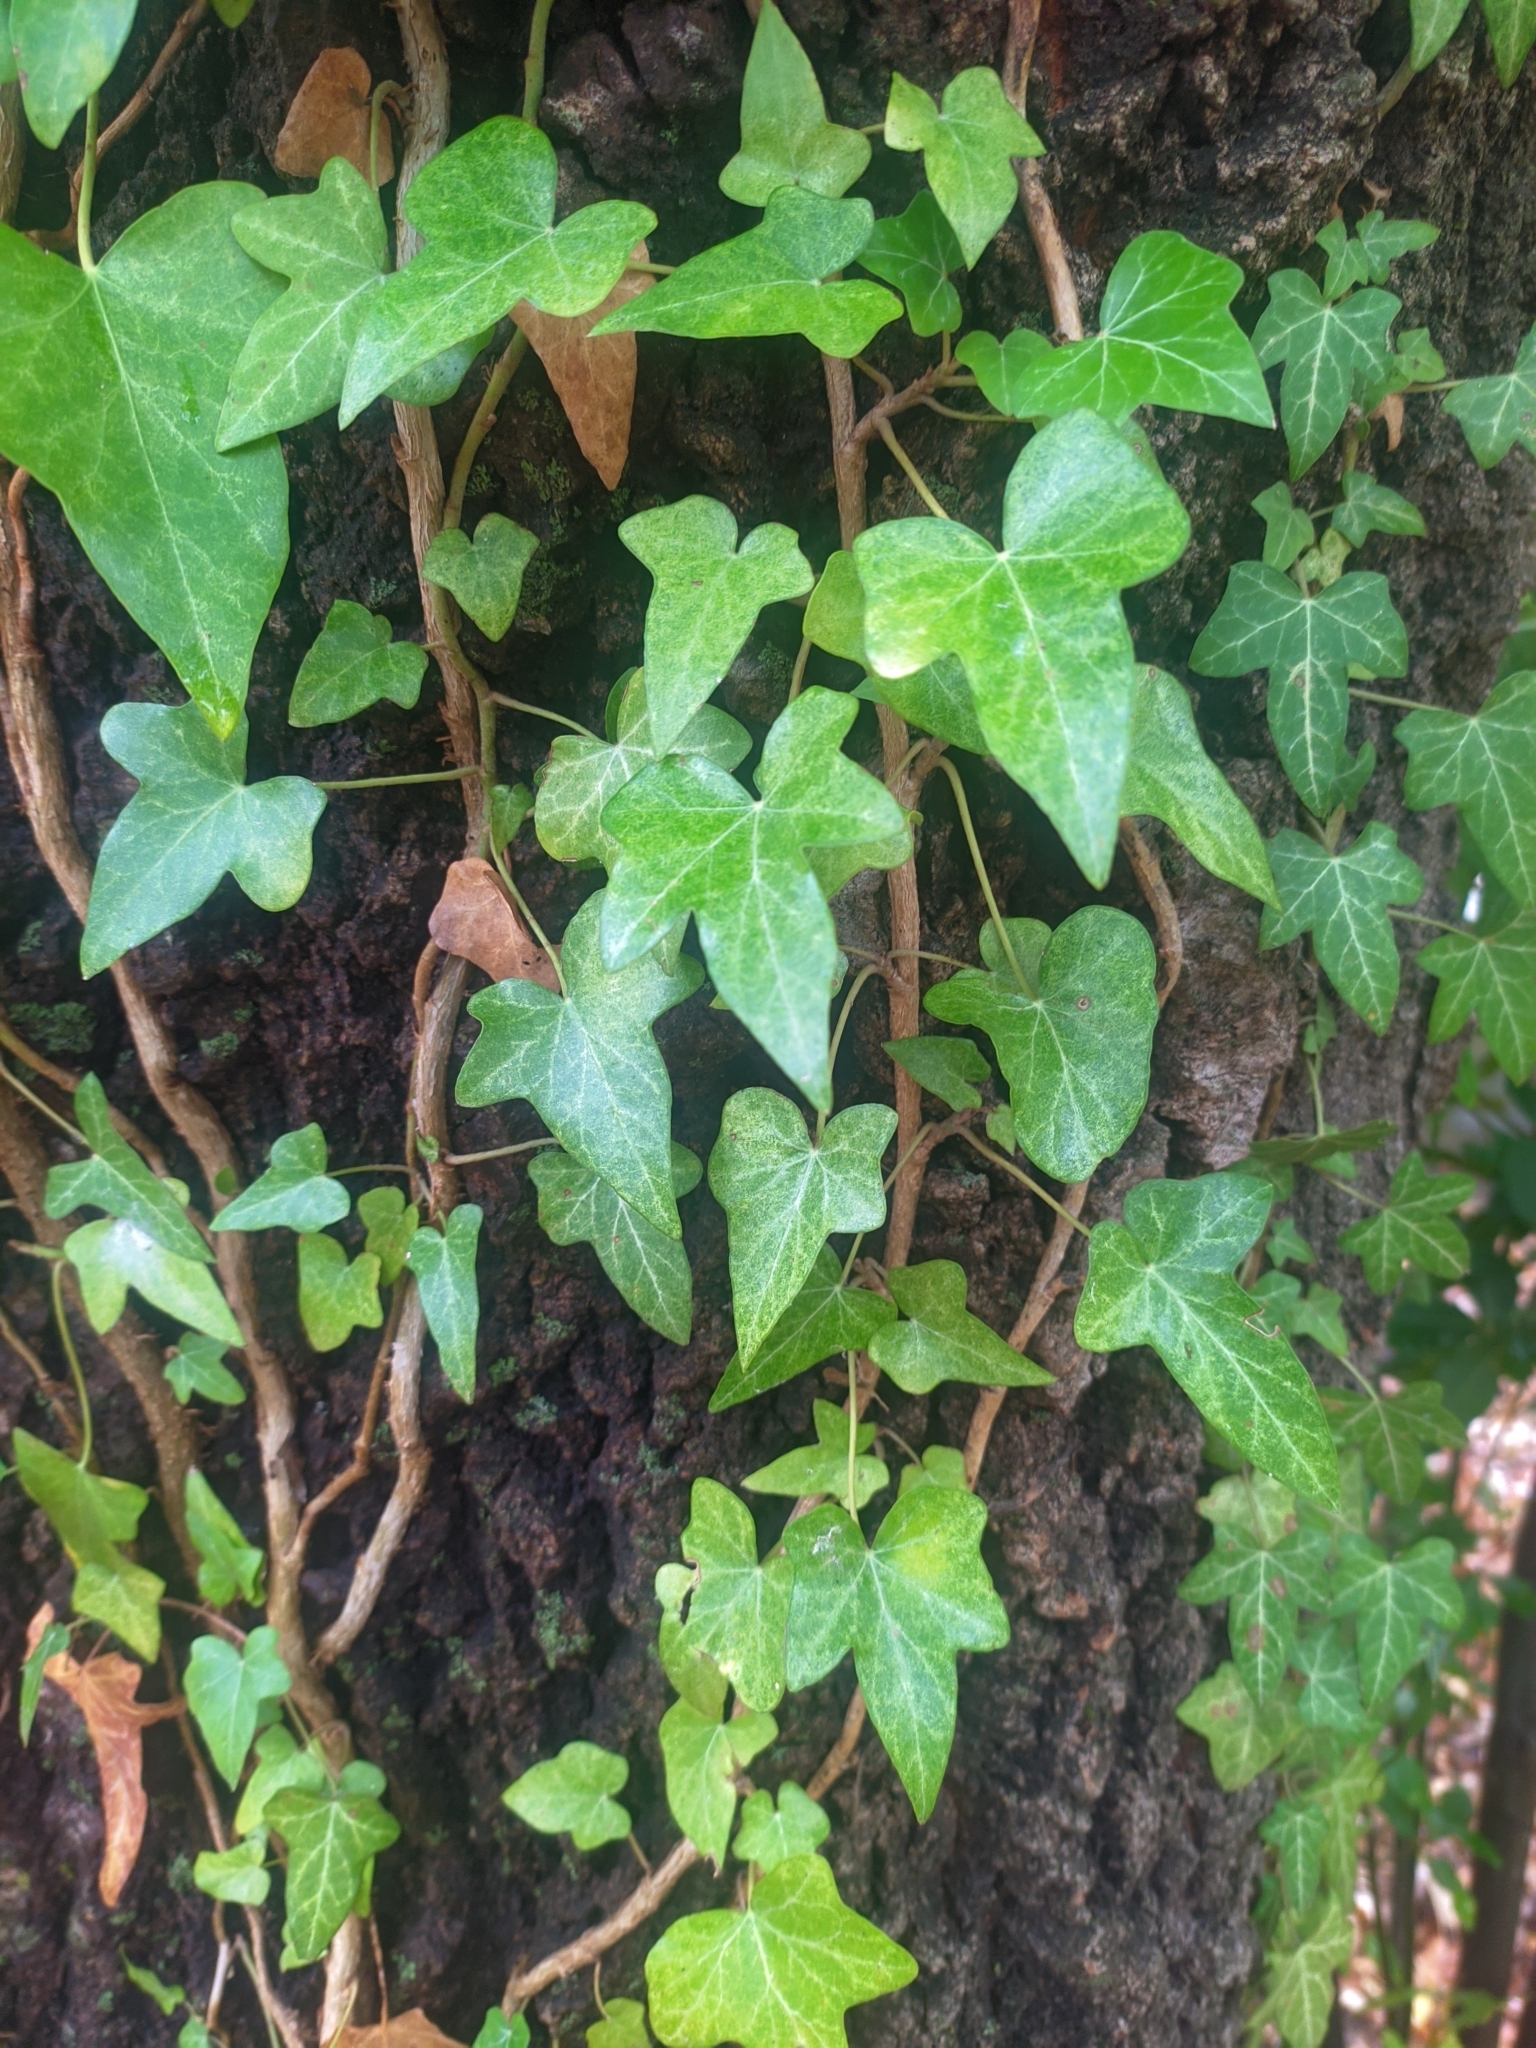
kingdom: Plantae
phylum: Tracheophyta
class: Magnoliopsida
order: Apiales
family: Araliaceae
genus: Hedera
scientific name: Hedera helix
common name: Ivy
